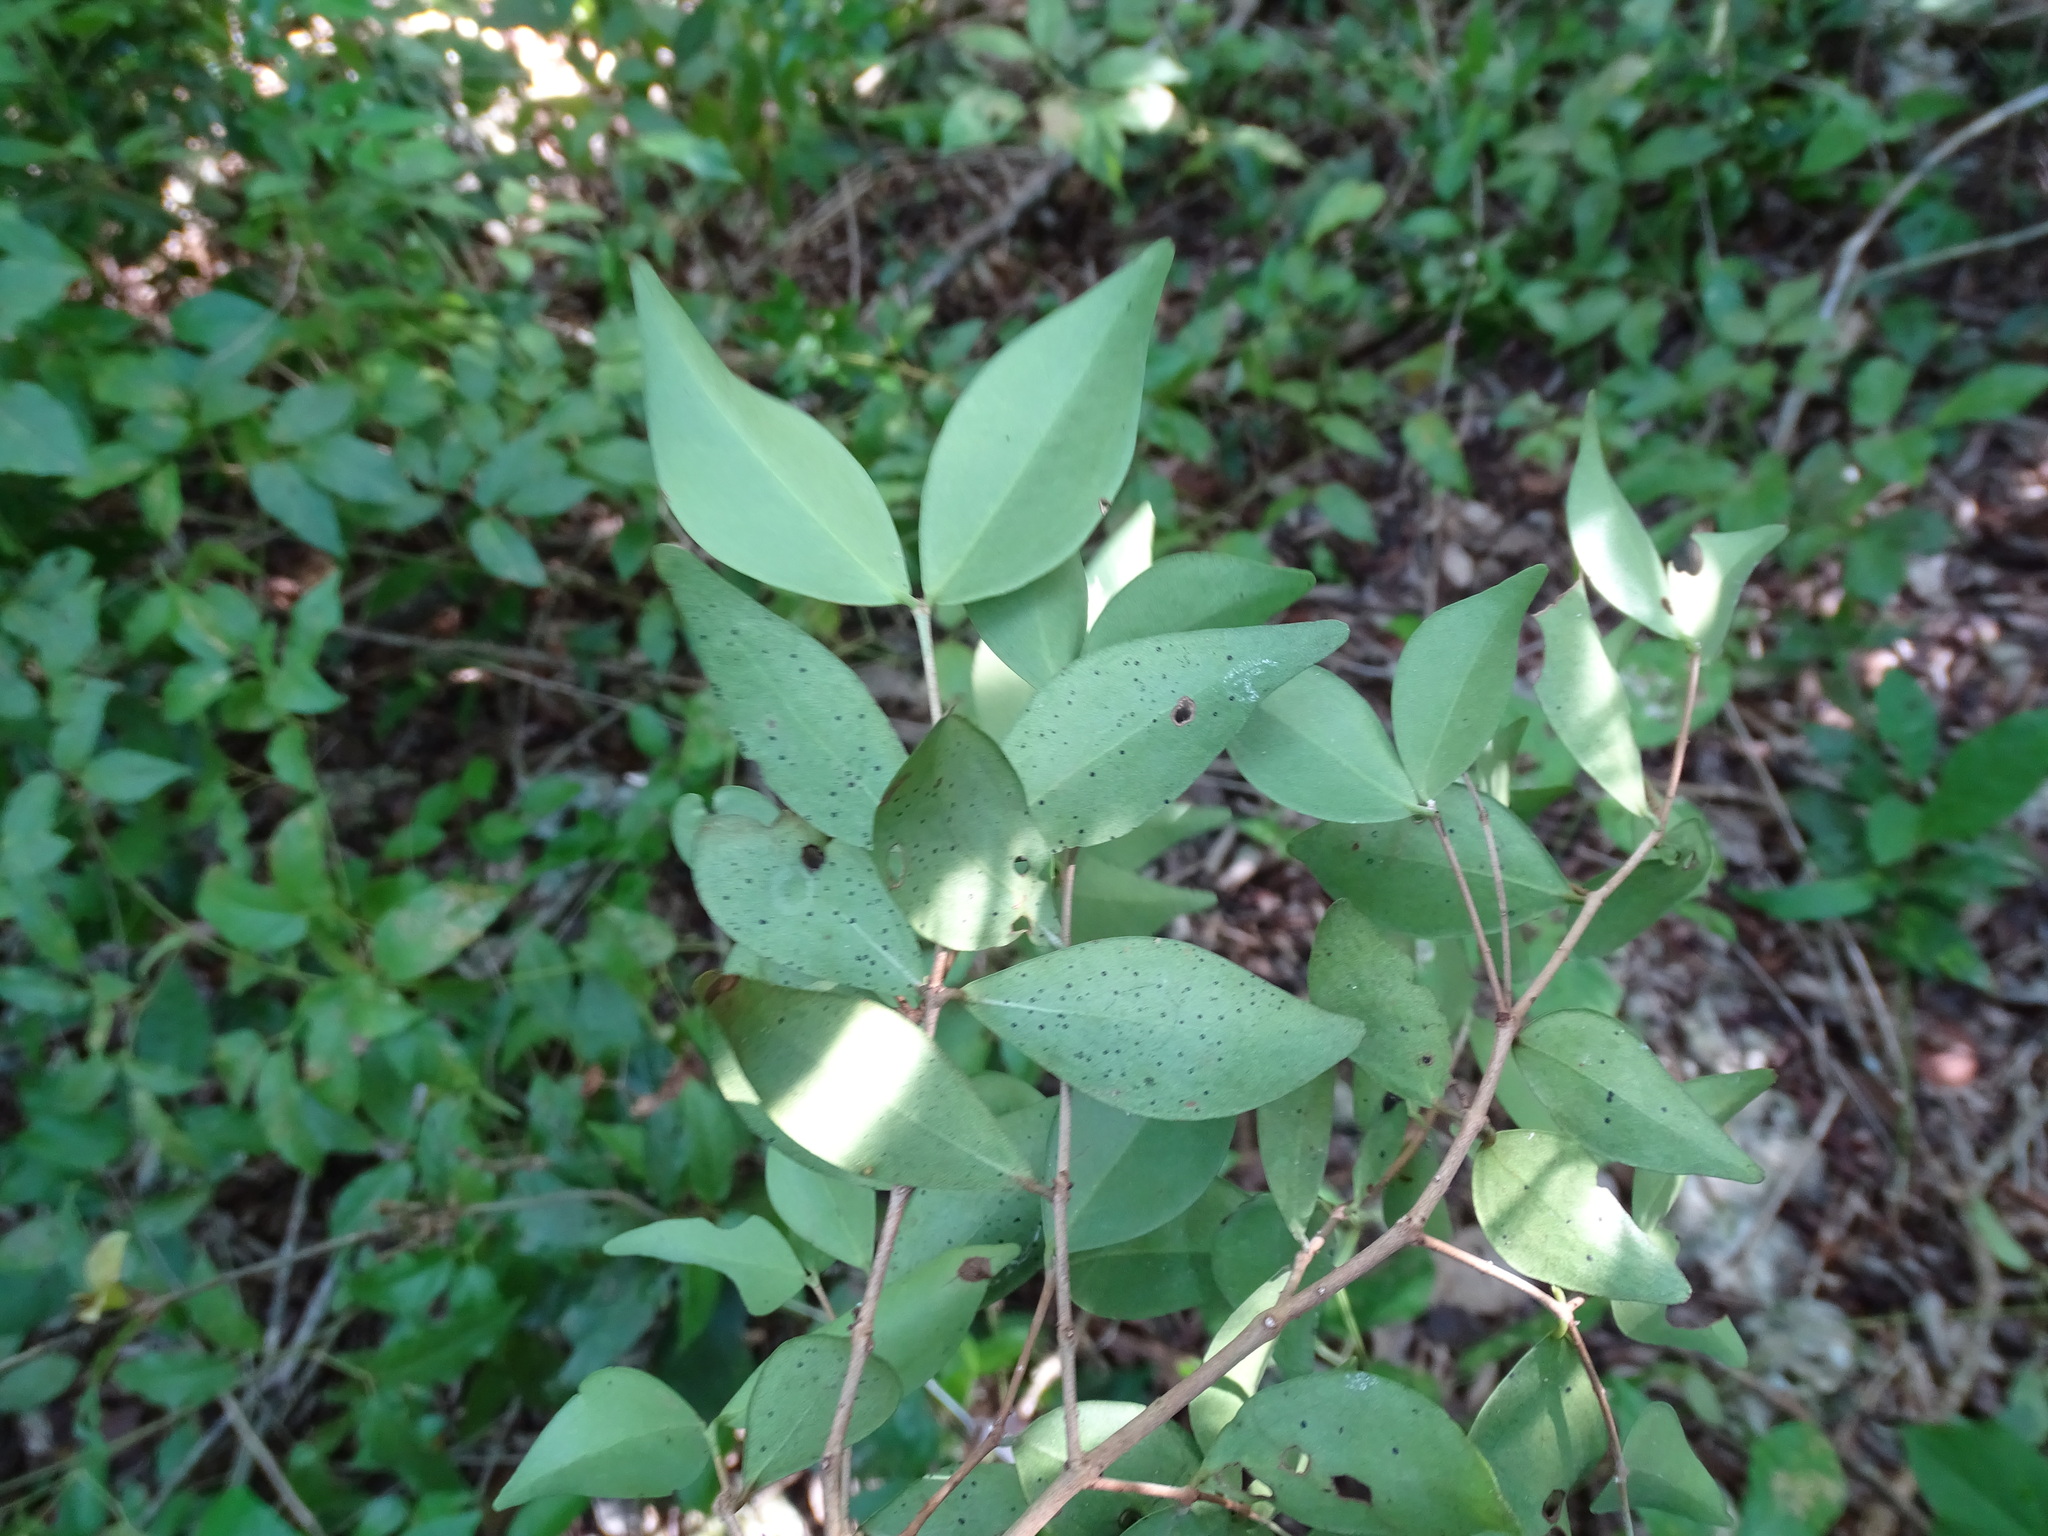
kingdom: Plantae
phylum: Tracheophyta
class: Magnoliopsida
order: Myrtales
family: Myrtaceae
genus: Myrcia
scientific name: Myrcia chytraculia
